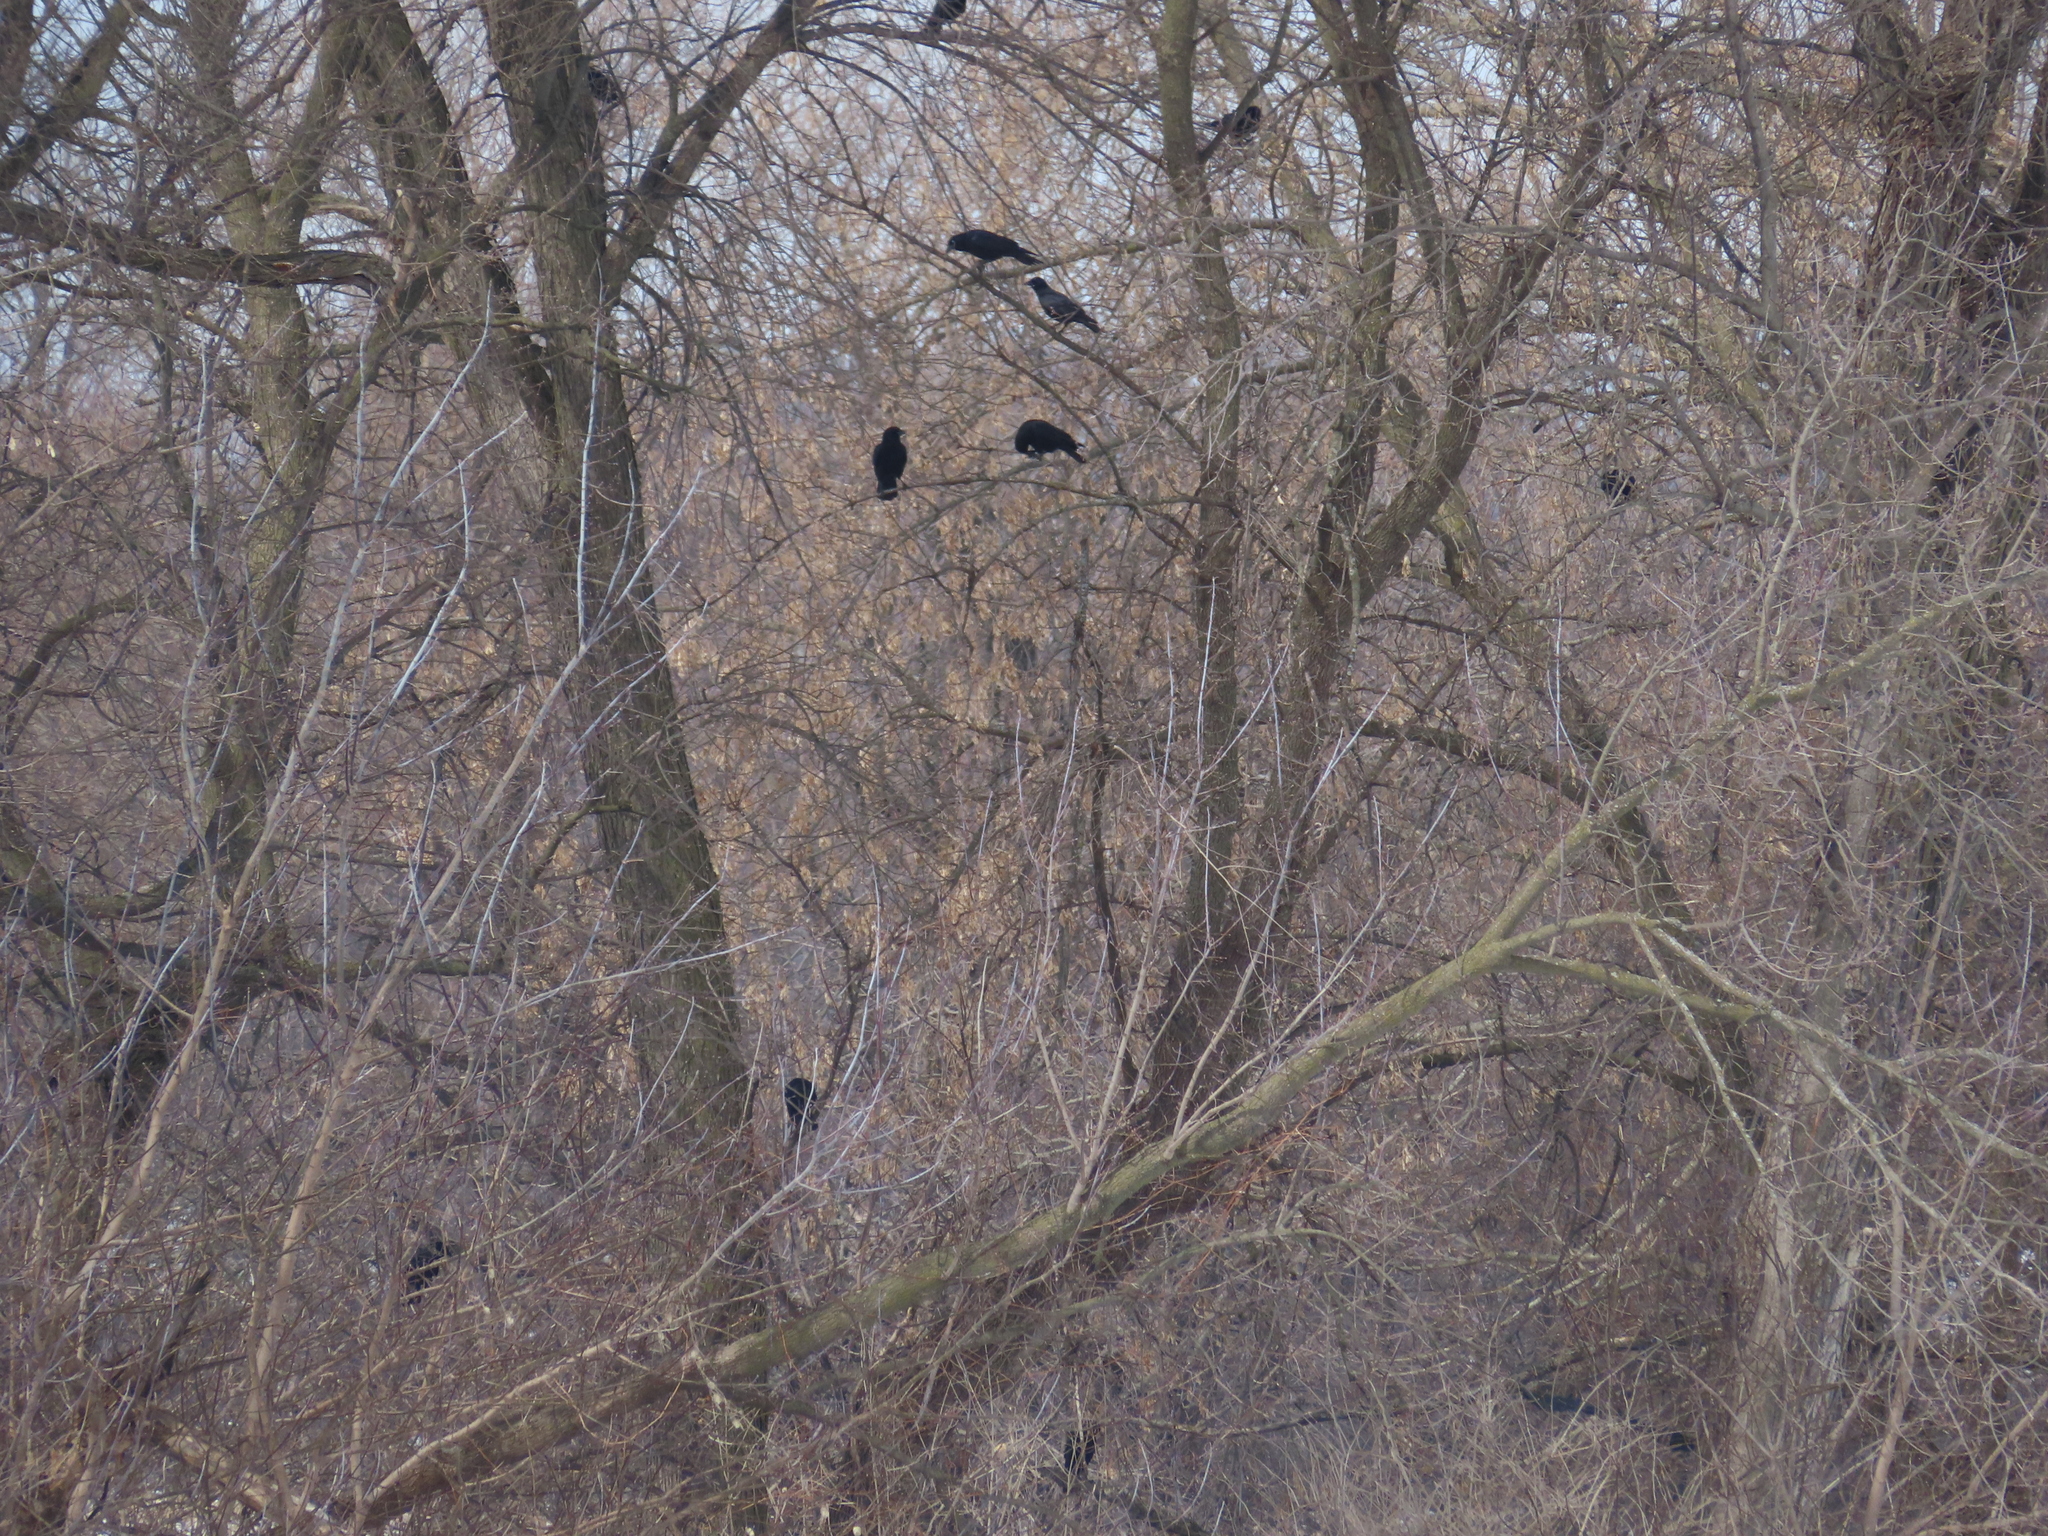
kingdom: Animalia
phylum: Chordata
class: Aves
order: Passeriformes
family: Icteridae
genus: Agelaius
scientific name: Agelaius phoeniceus
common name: Red-winged blackbird
